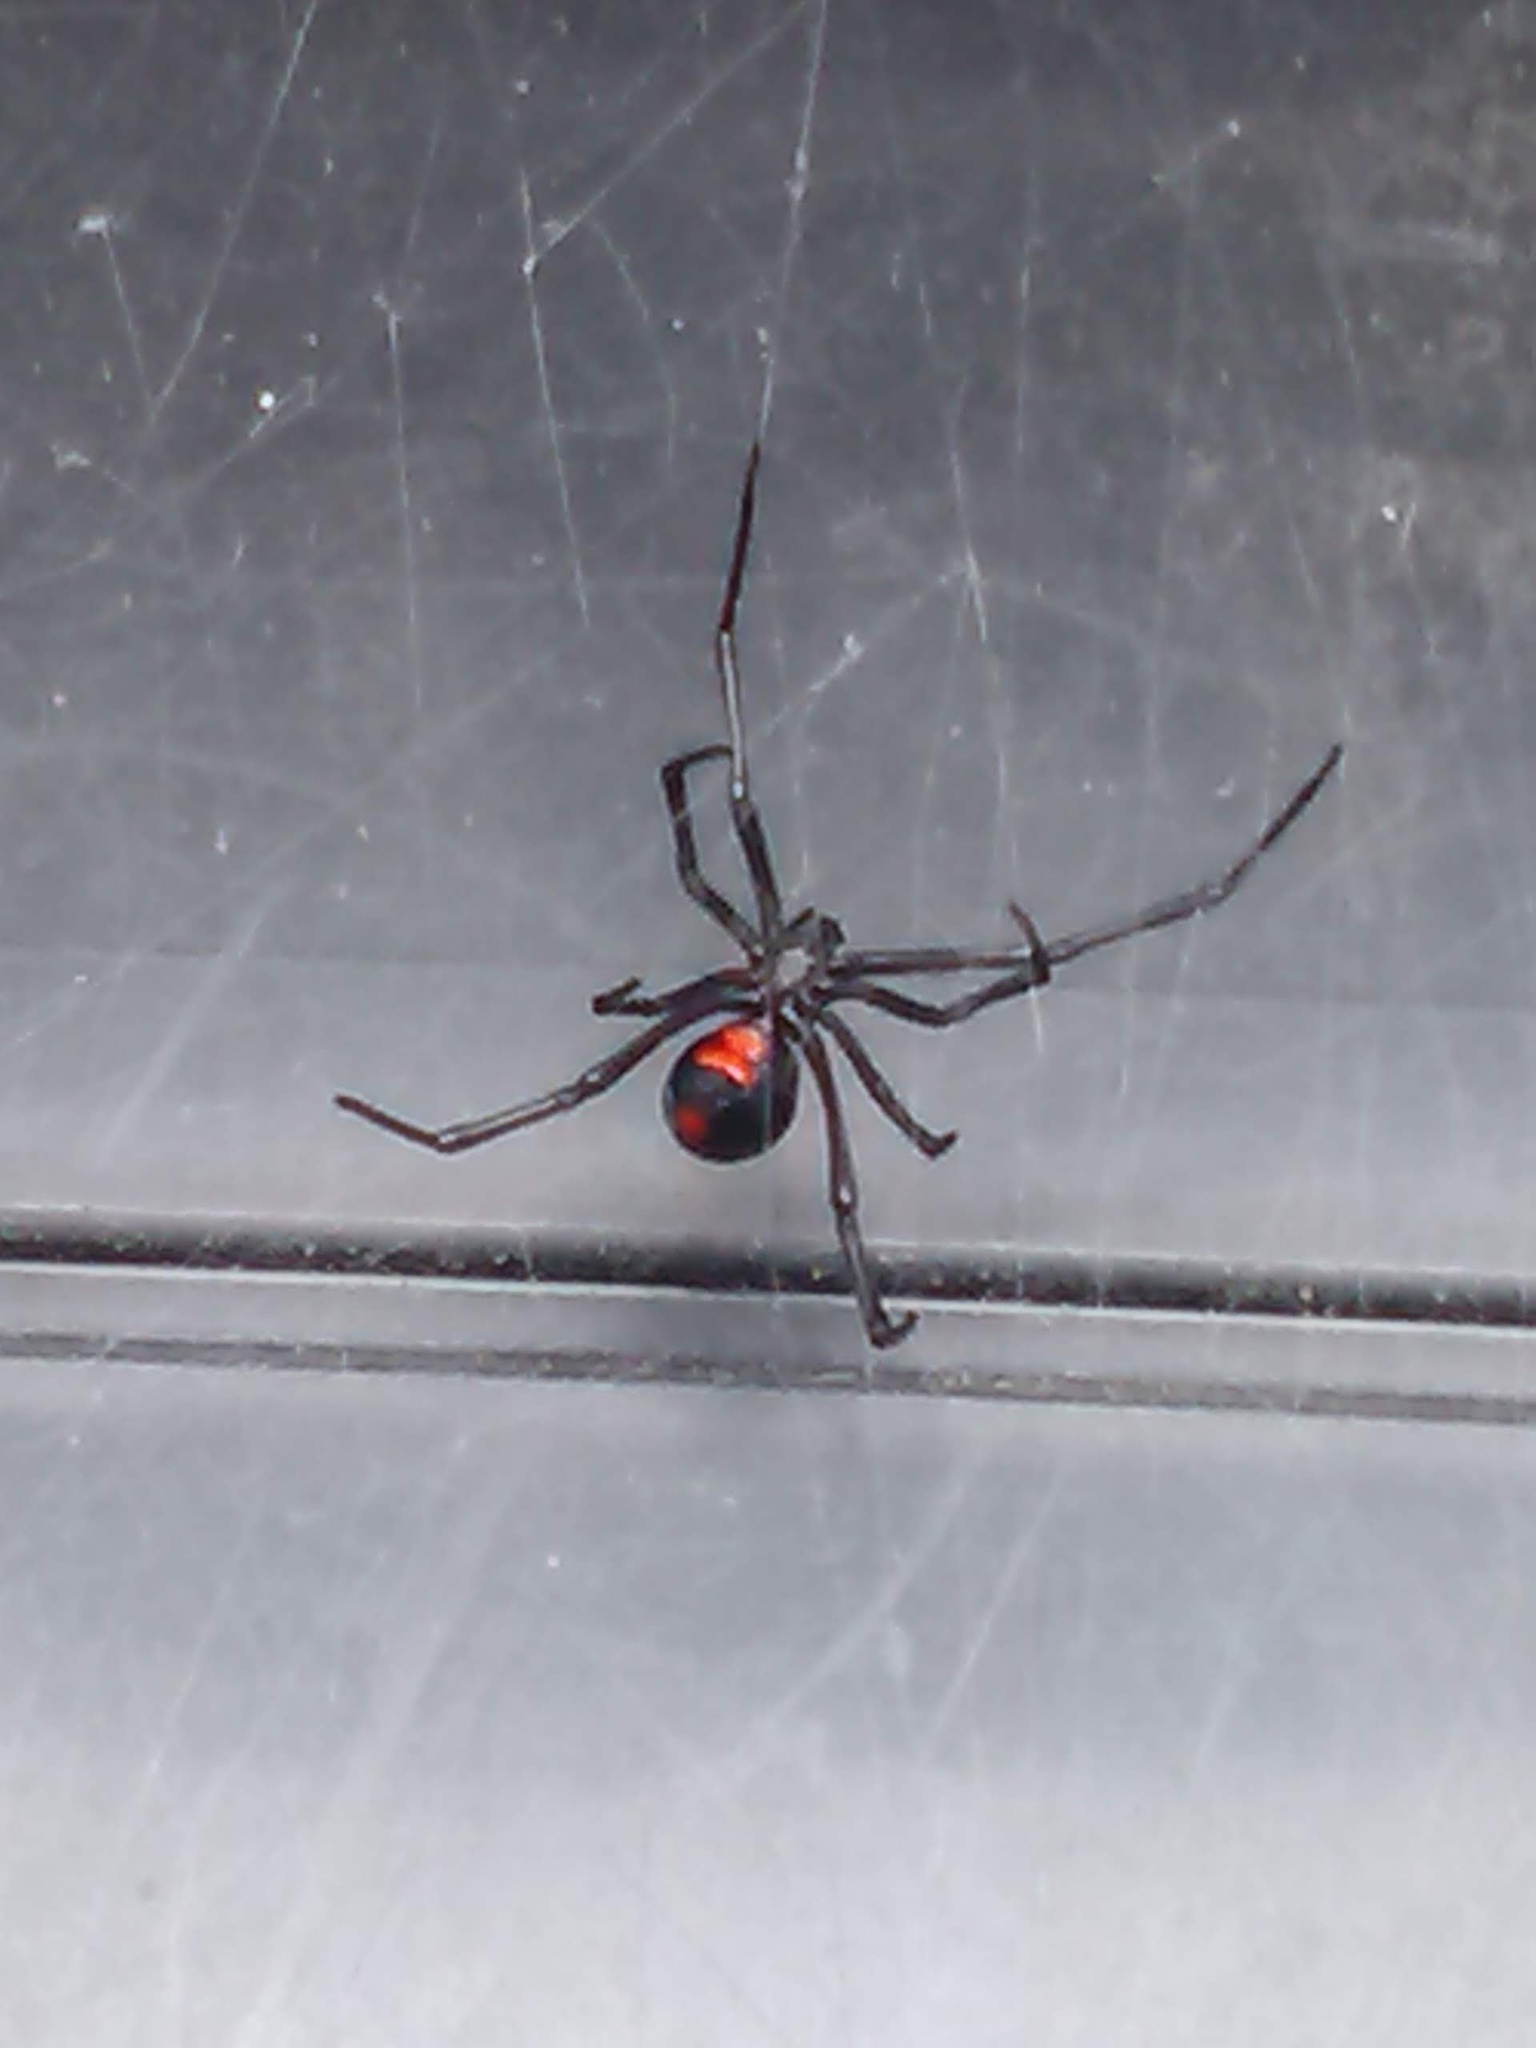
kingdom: Animalia
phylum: Arthropoda
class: Arachnida
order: Araneae
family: Theridiidae
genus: Latrodectus
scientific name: Latrodectus mactans
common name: Cobweb spiders
